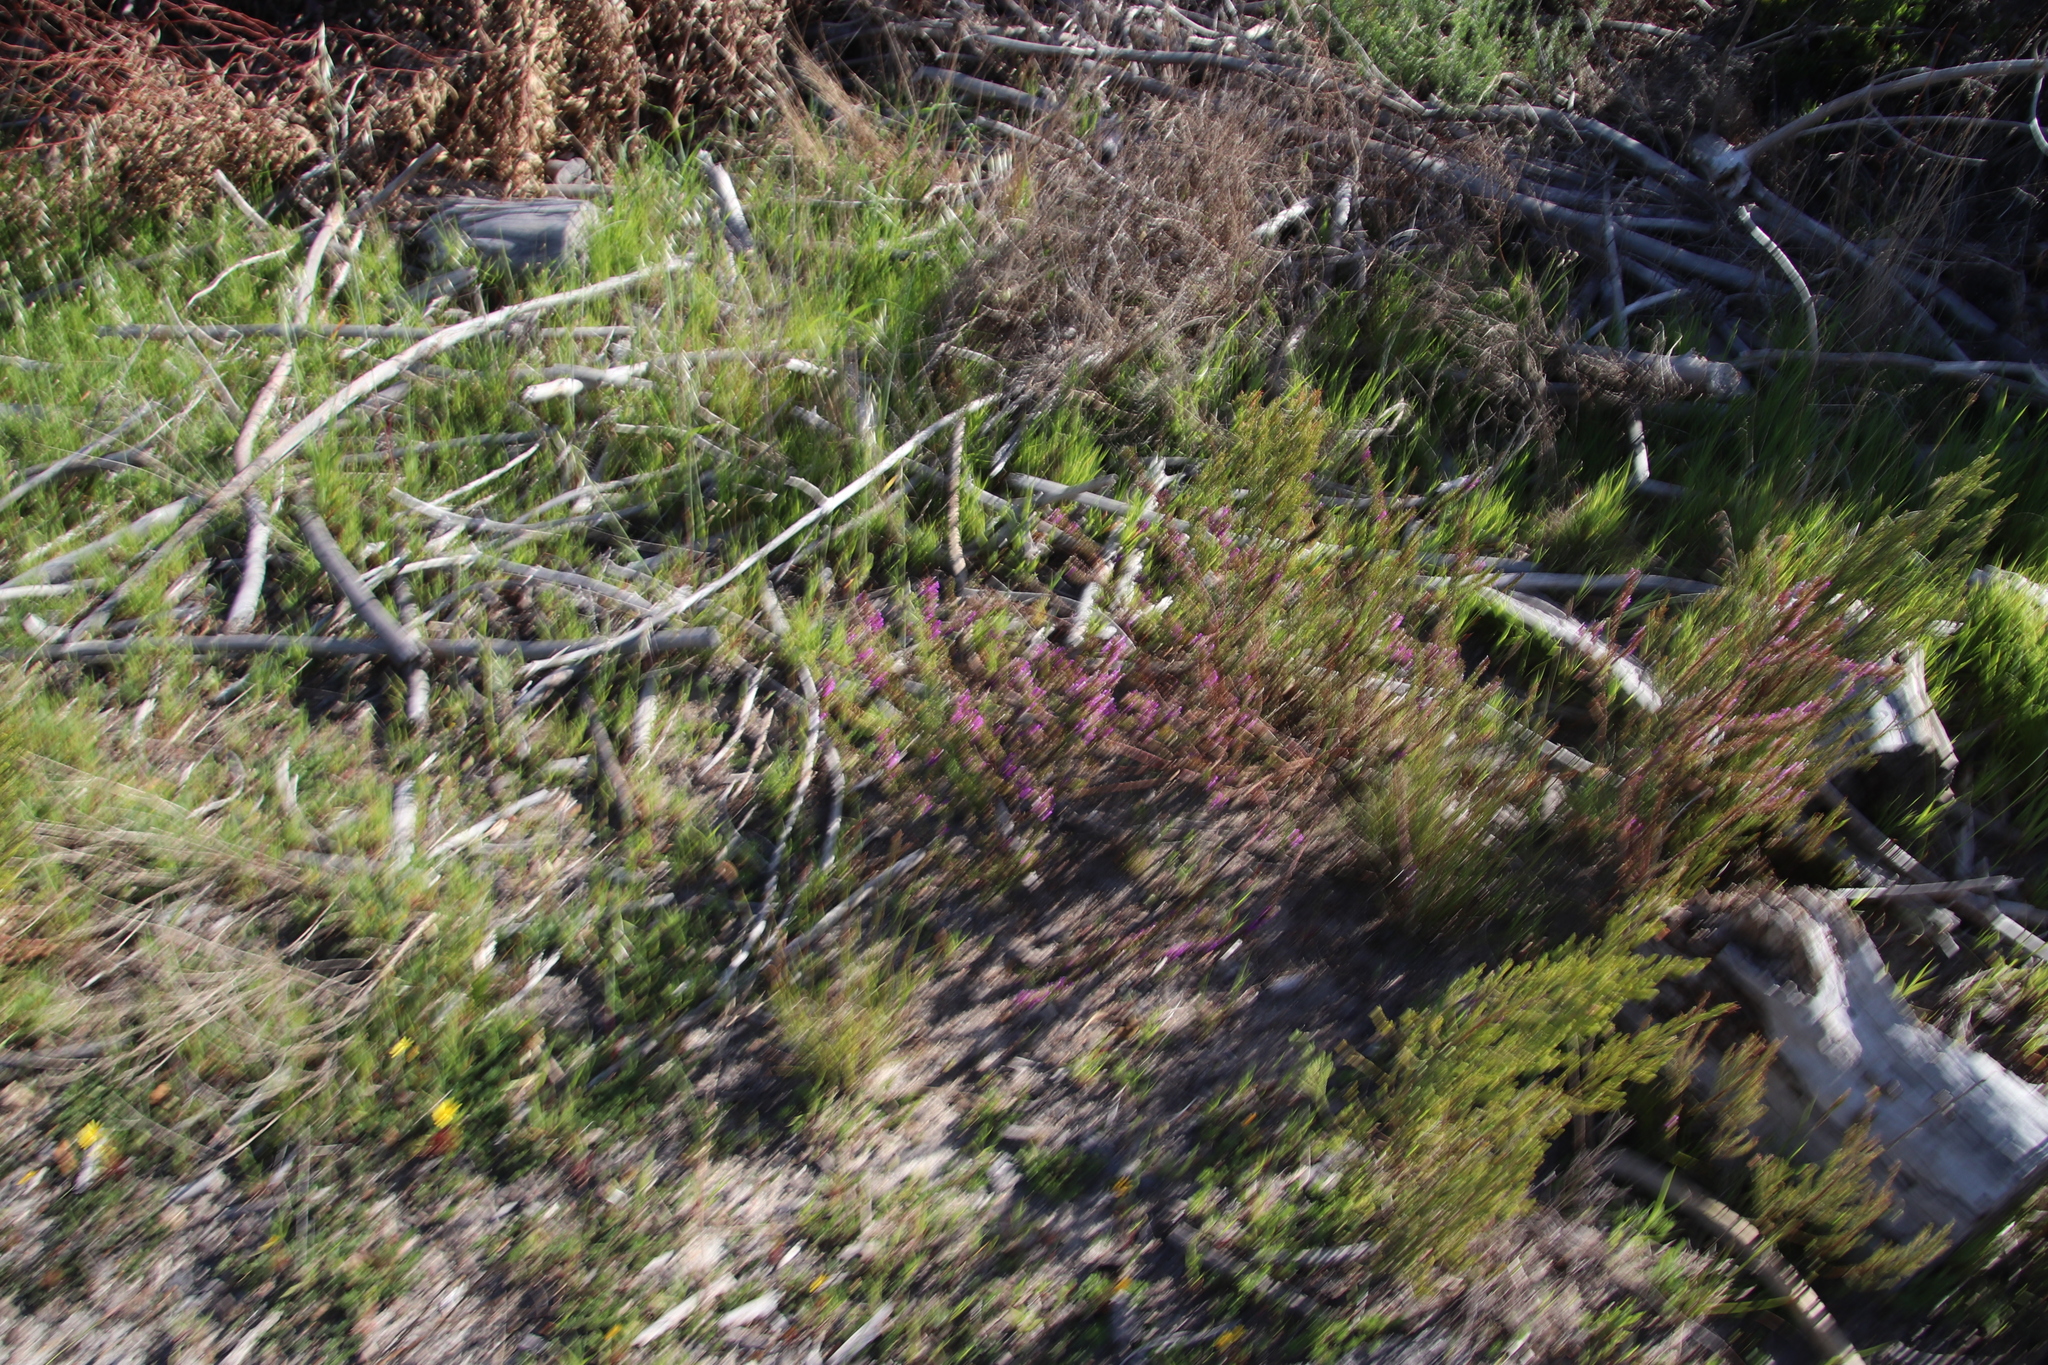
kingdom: Plantae
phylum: Tracheophyta
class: Magnoliopsida
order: Fabales
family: Polygalaceae
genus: Muraltia
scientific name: Muraltia heisteria
